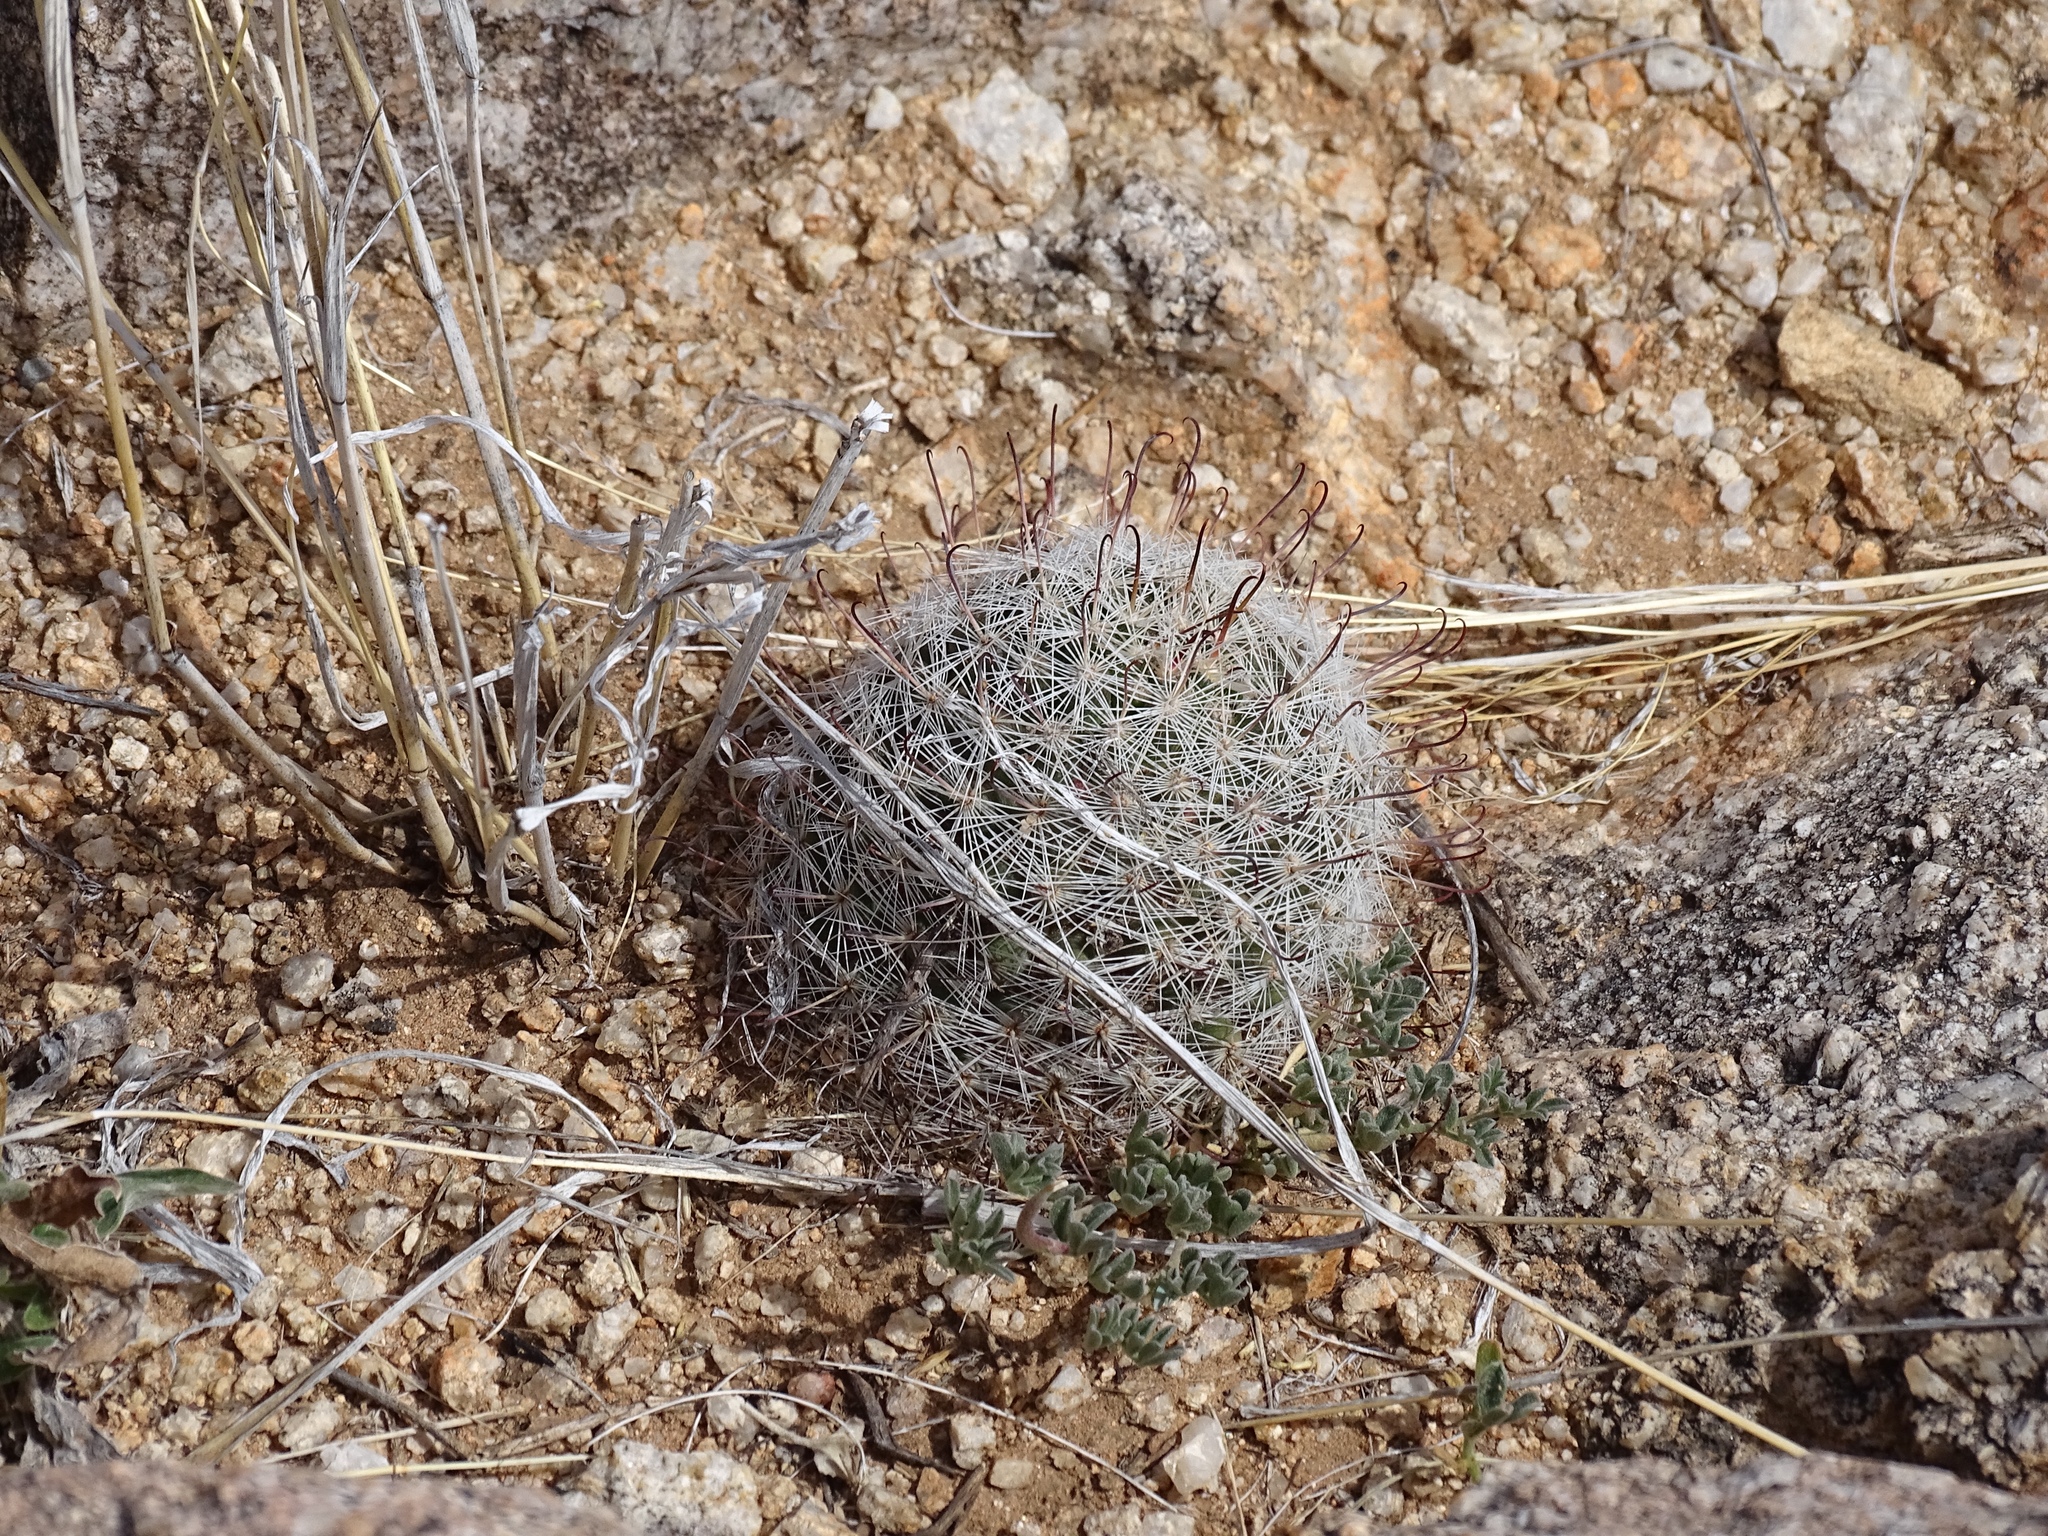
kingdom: Plantae
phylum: Tracheophyta
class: Magnoliopsida
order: Caryophyllales
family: Cactaceae
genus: Cochemiea
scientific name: Cochemiea grahamii
